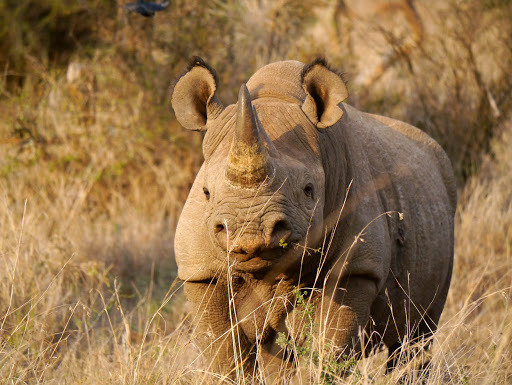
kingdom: Animalia
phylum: Chordata
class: Mammalia
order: Perissodactyla
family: Rhinocerotidae
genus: Diceros
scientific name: Diceros bicornis
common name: Black rhinoceros
